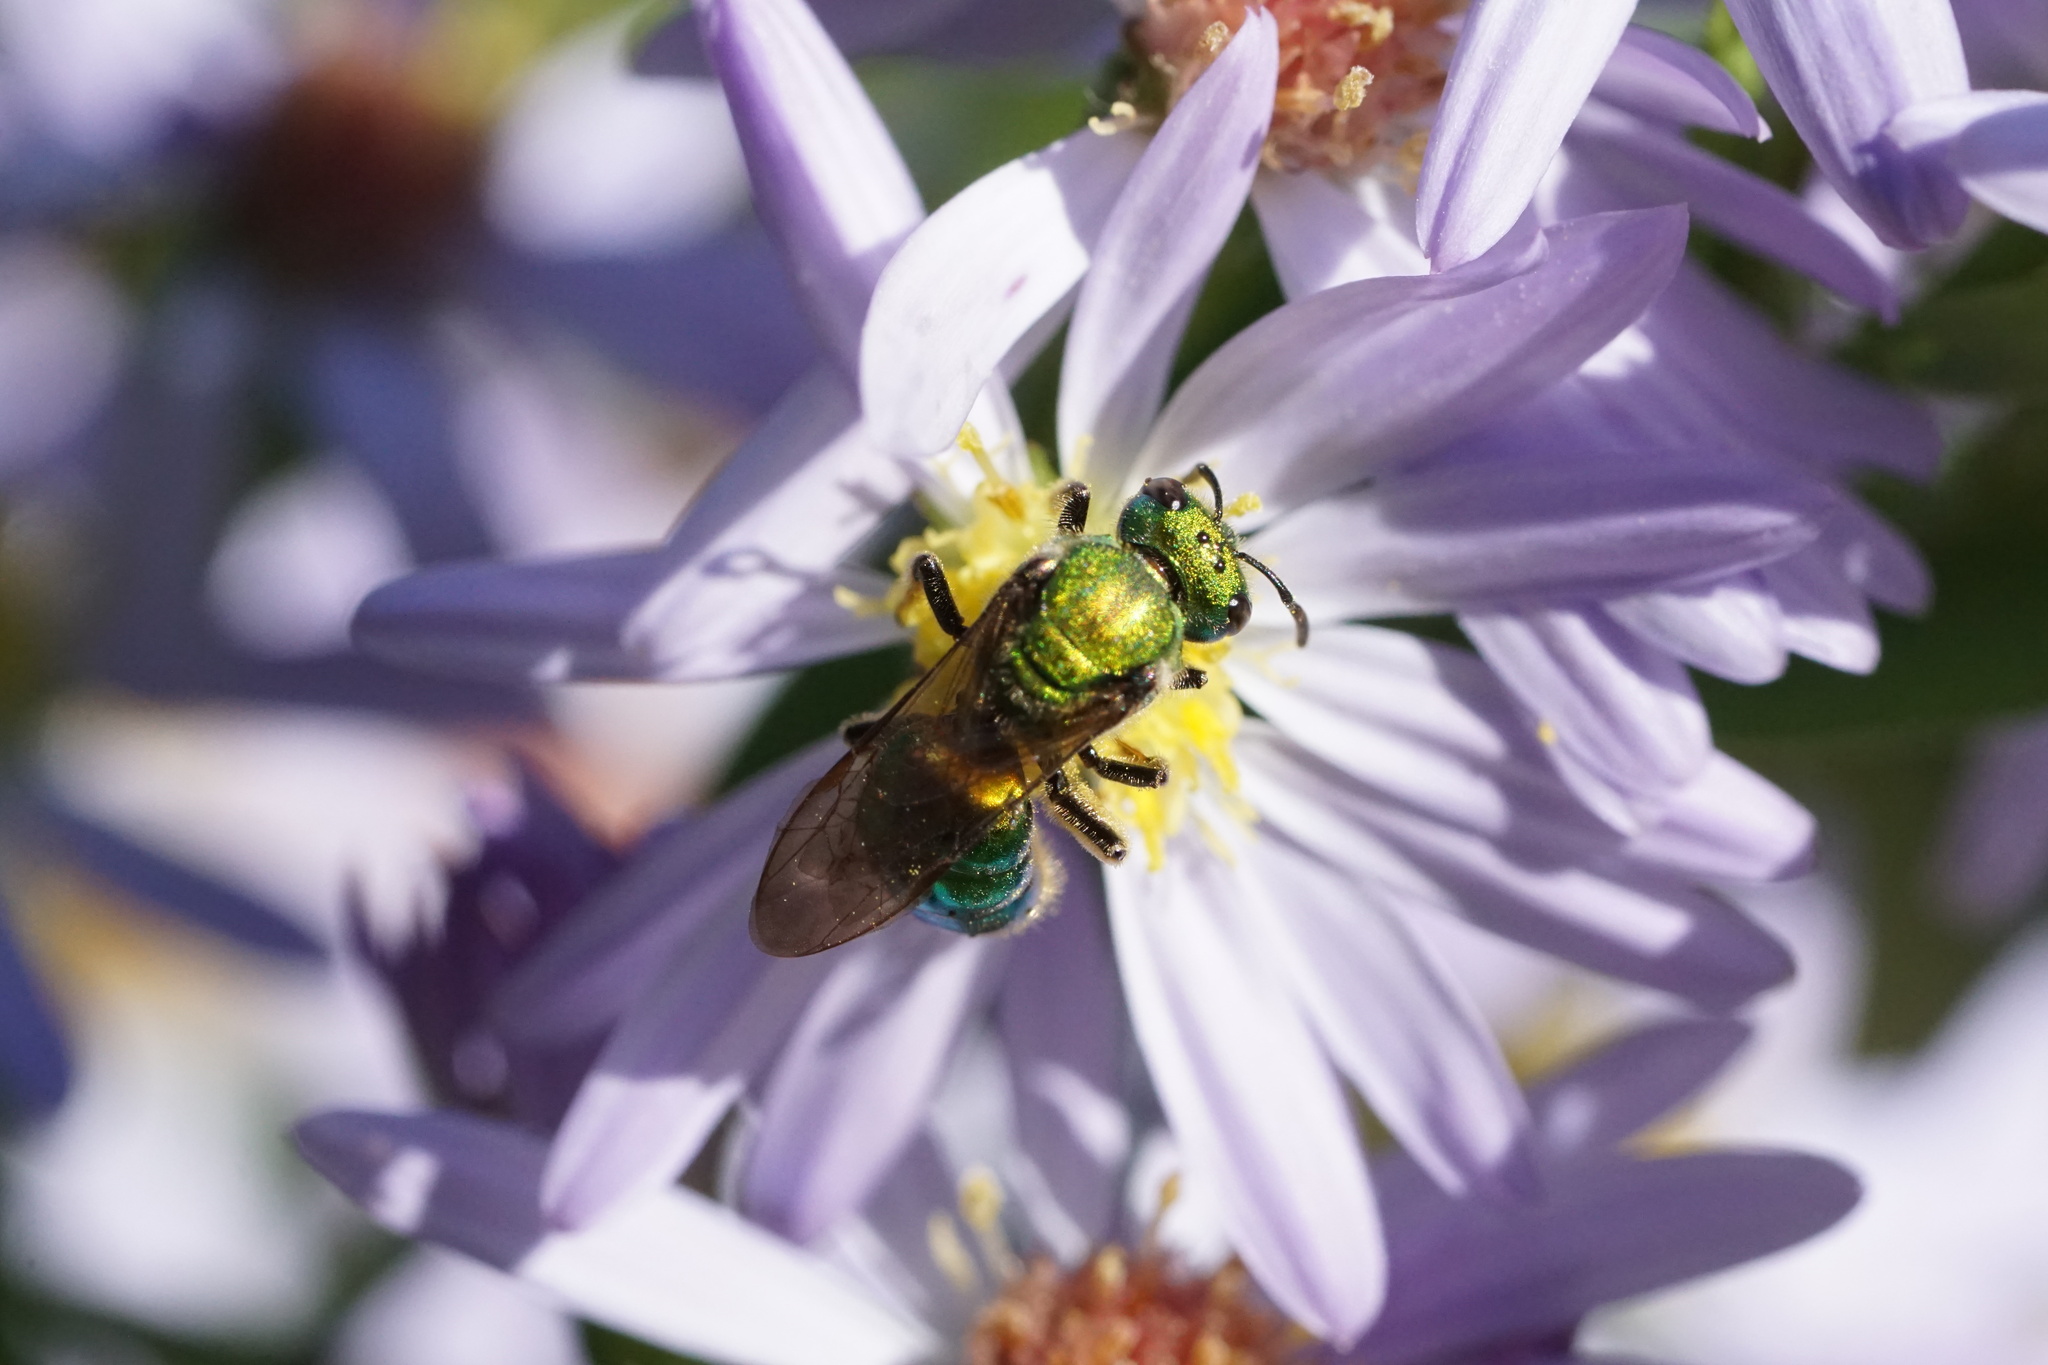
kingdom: Animalia
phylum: Arthropoda
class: Insecta
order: Hymenoptera
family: Halictidae
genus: Augochlora
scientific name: Augochlora pura
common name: Pure green sweat bee
